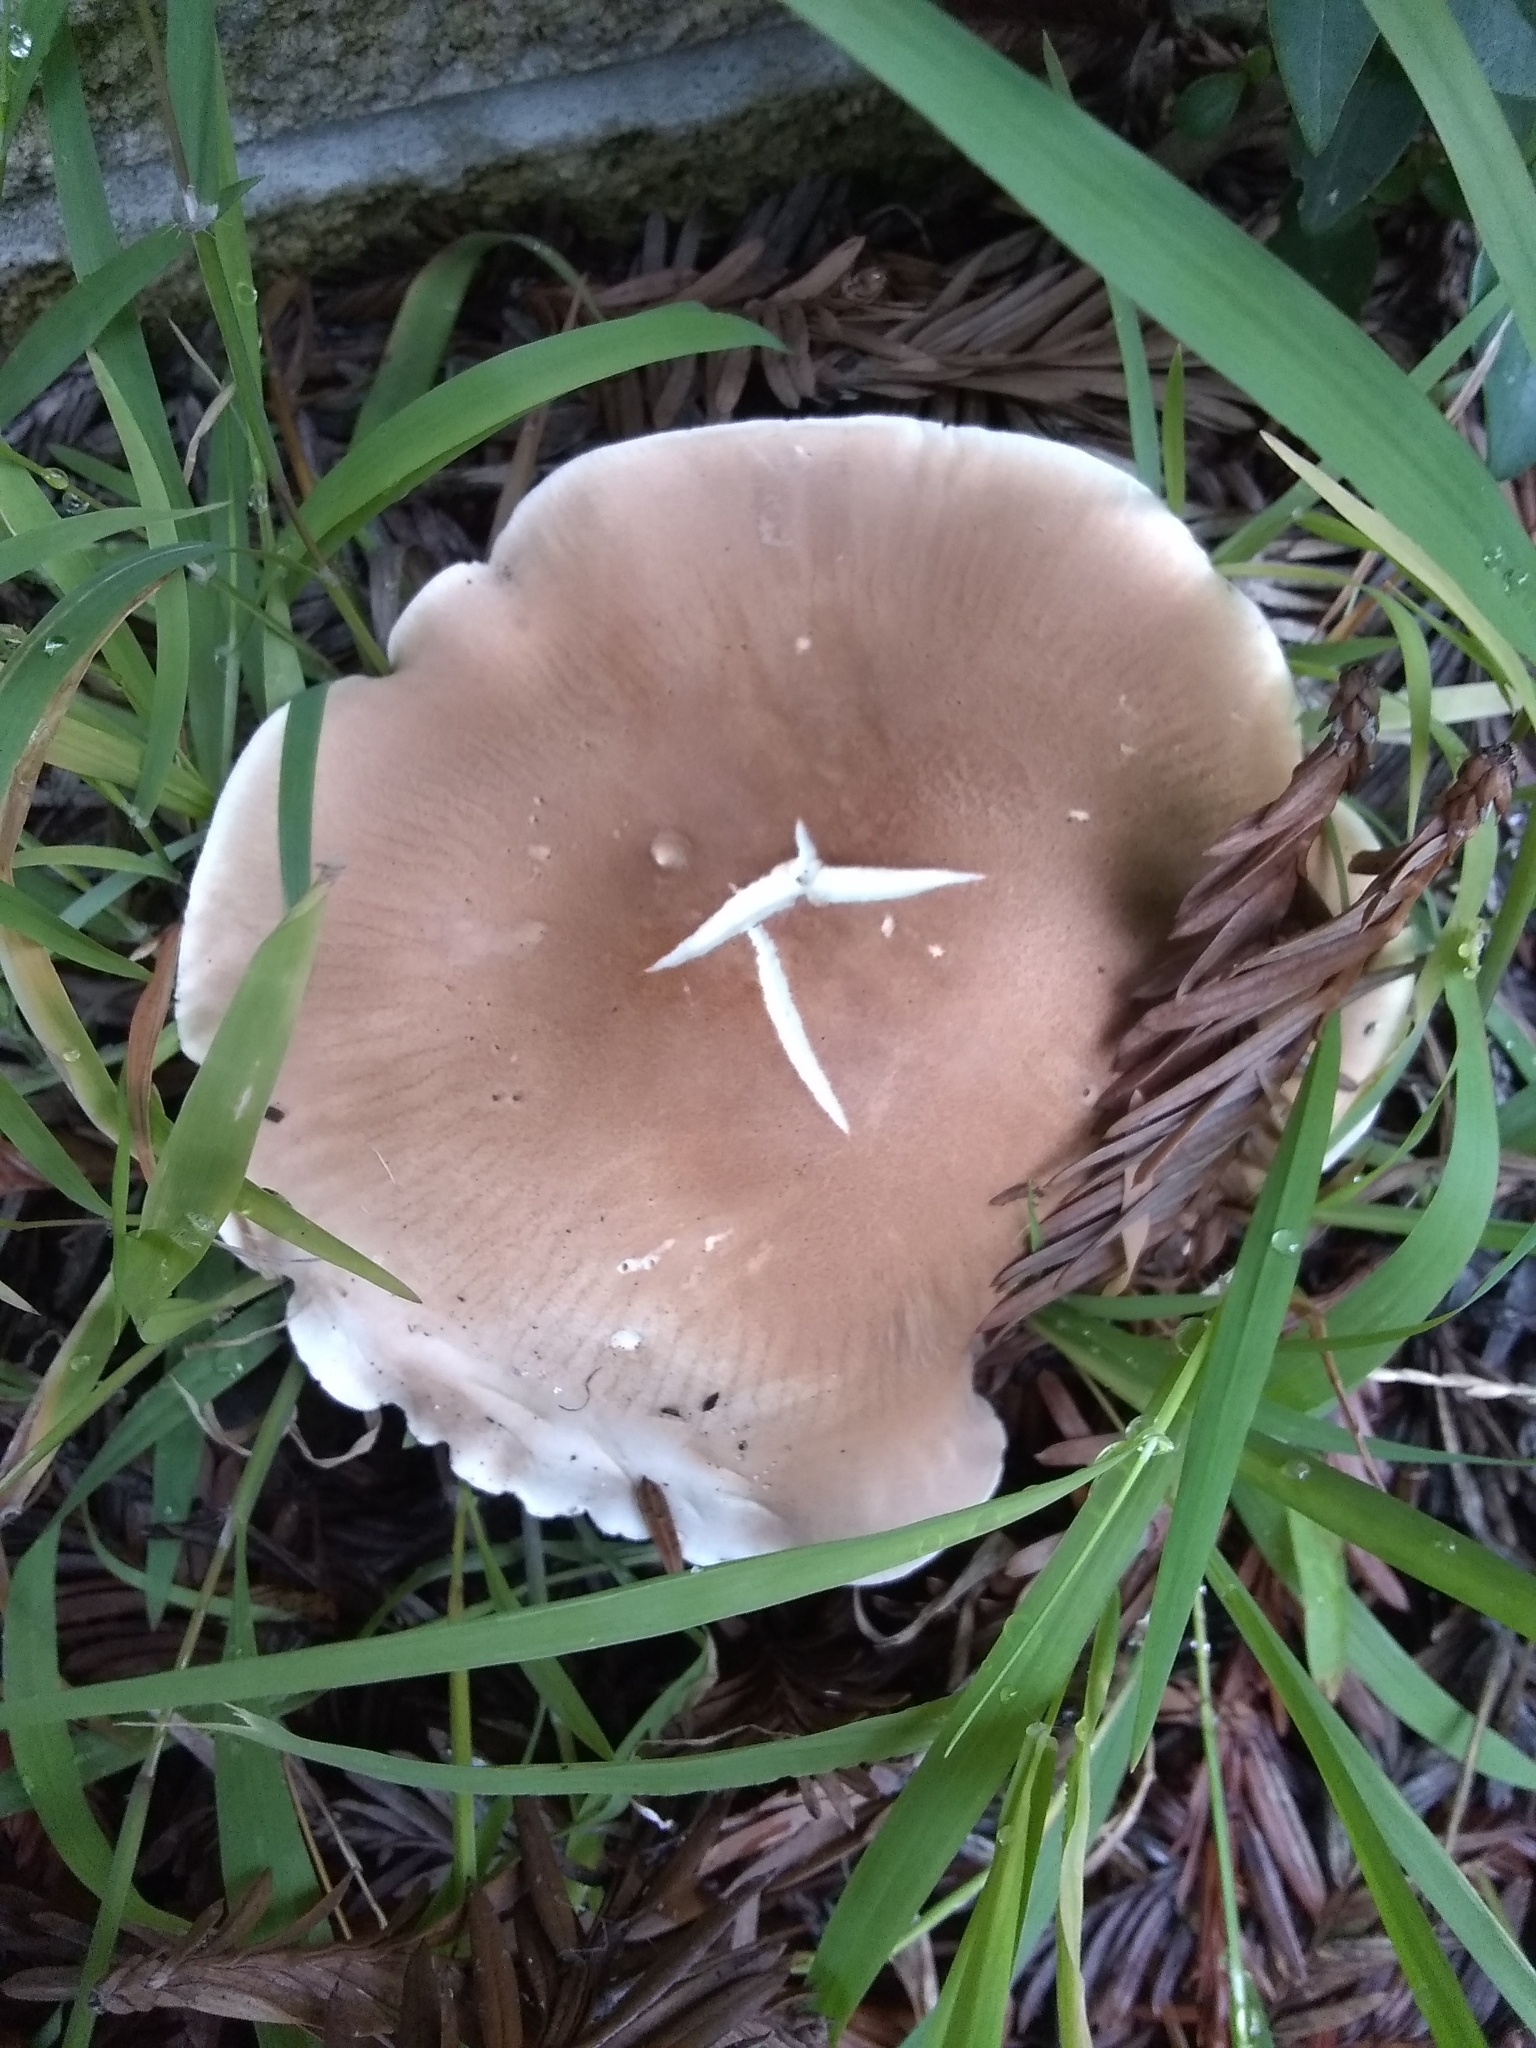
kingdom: Fungi
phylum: Basidiomycota
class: Agaricomycetes
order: Agaricales
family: Tricholomataceae
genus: Leucopaxillus
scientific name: Leucopaxillus gentianeus
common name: Bitter funnel
